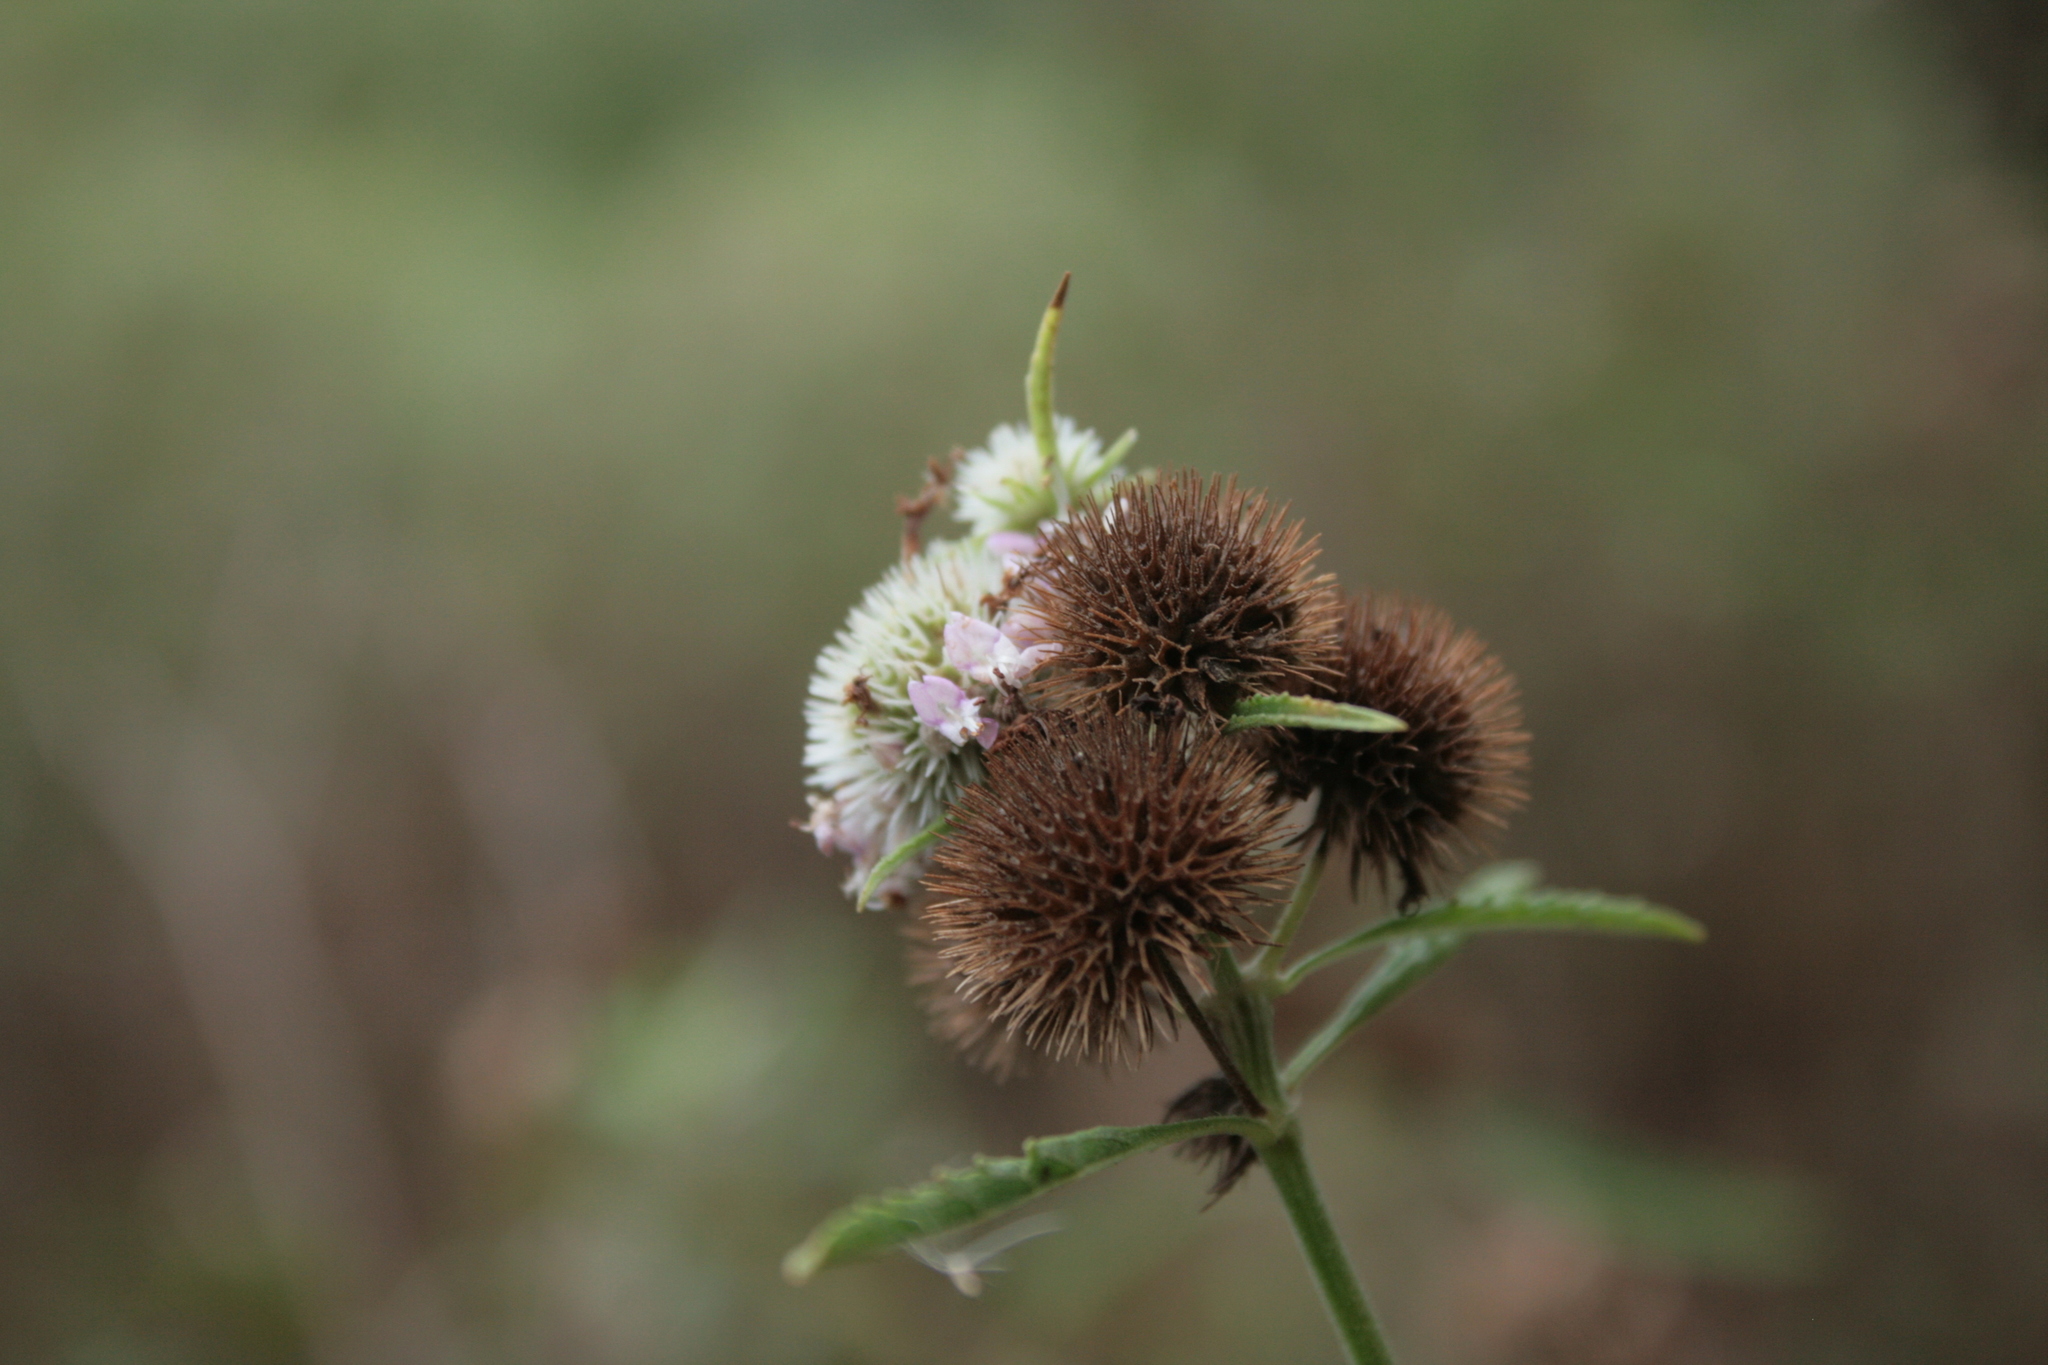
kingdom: Plantae
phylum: Tracheophyta
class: Magnoliopsida
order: Lamiales
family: Lamiaceae
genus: Hyptis
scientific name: Hyptis lappacea
